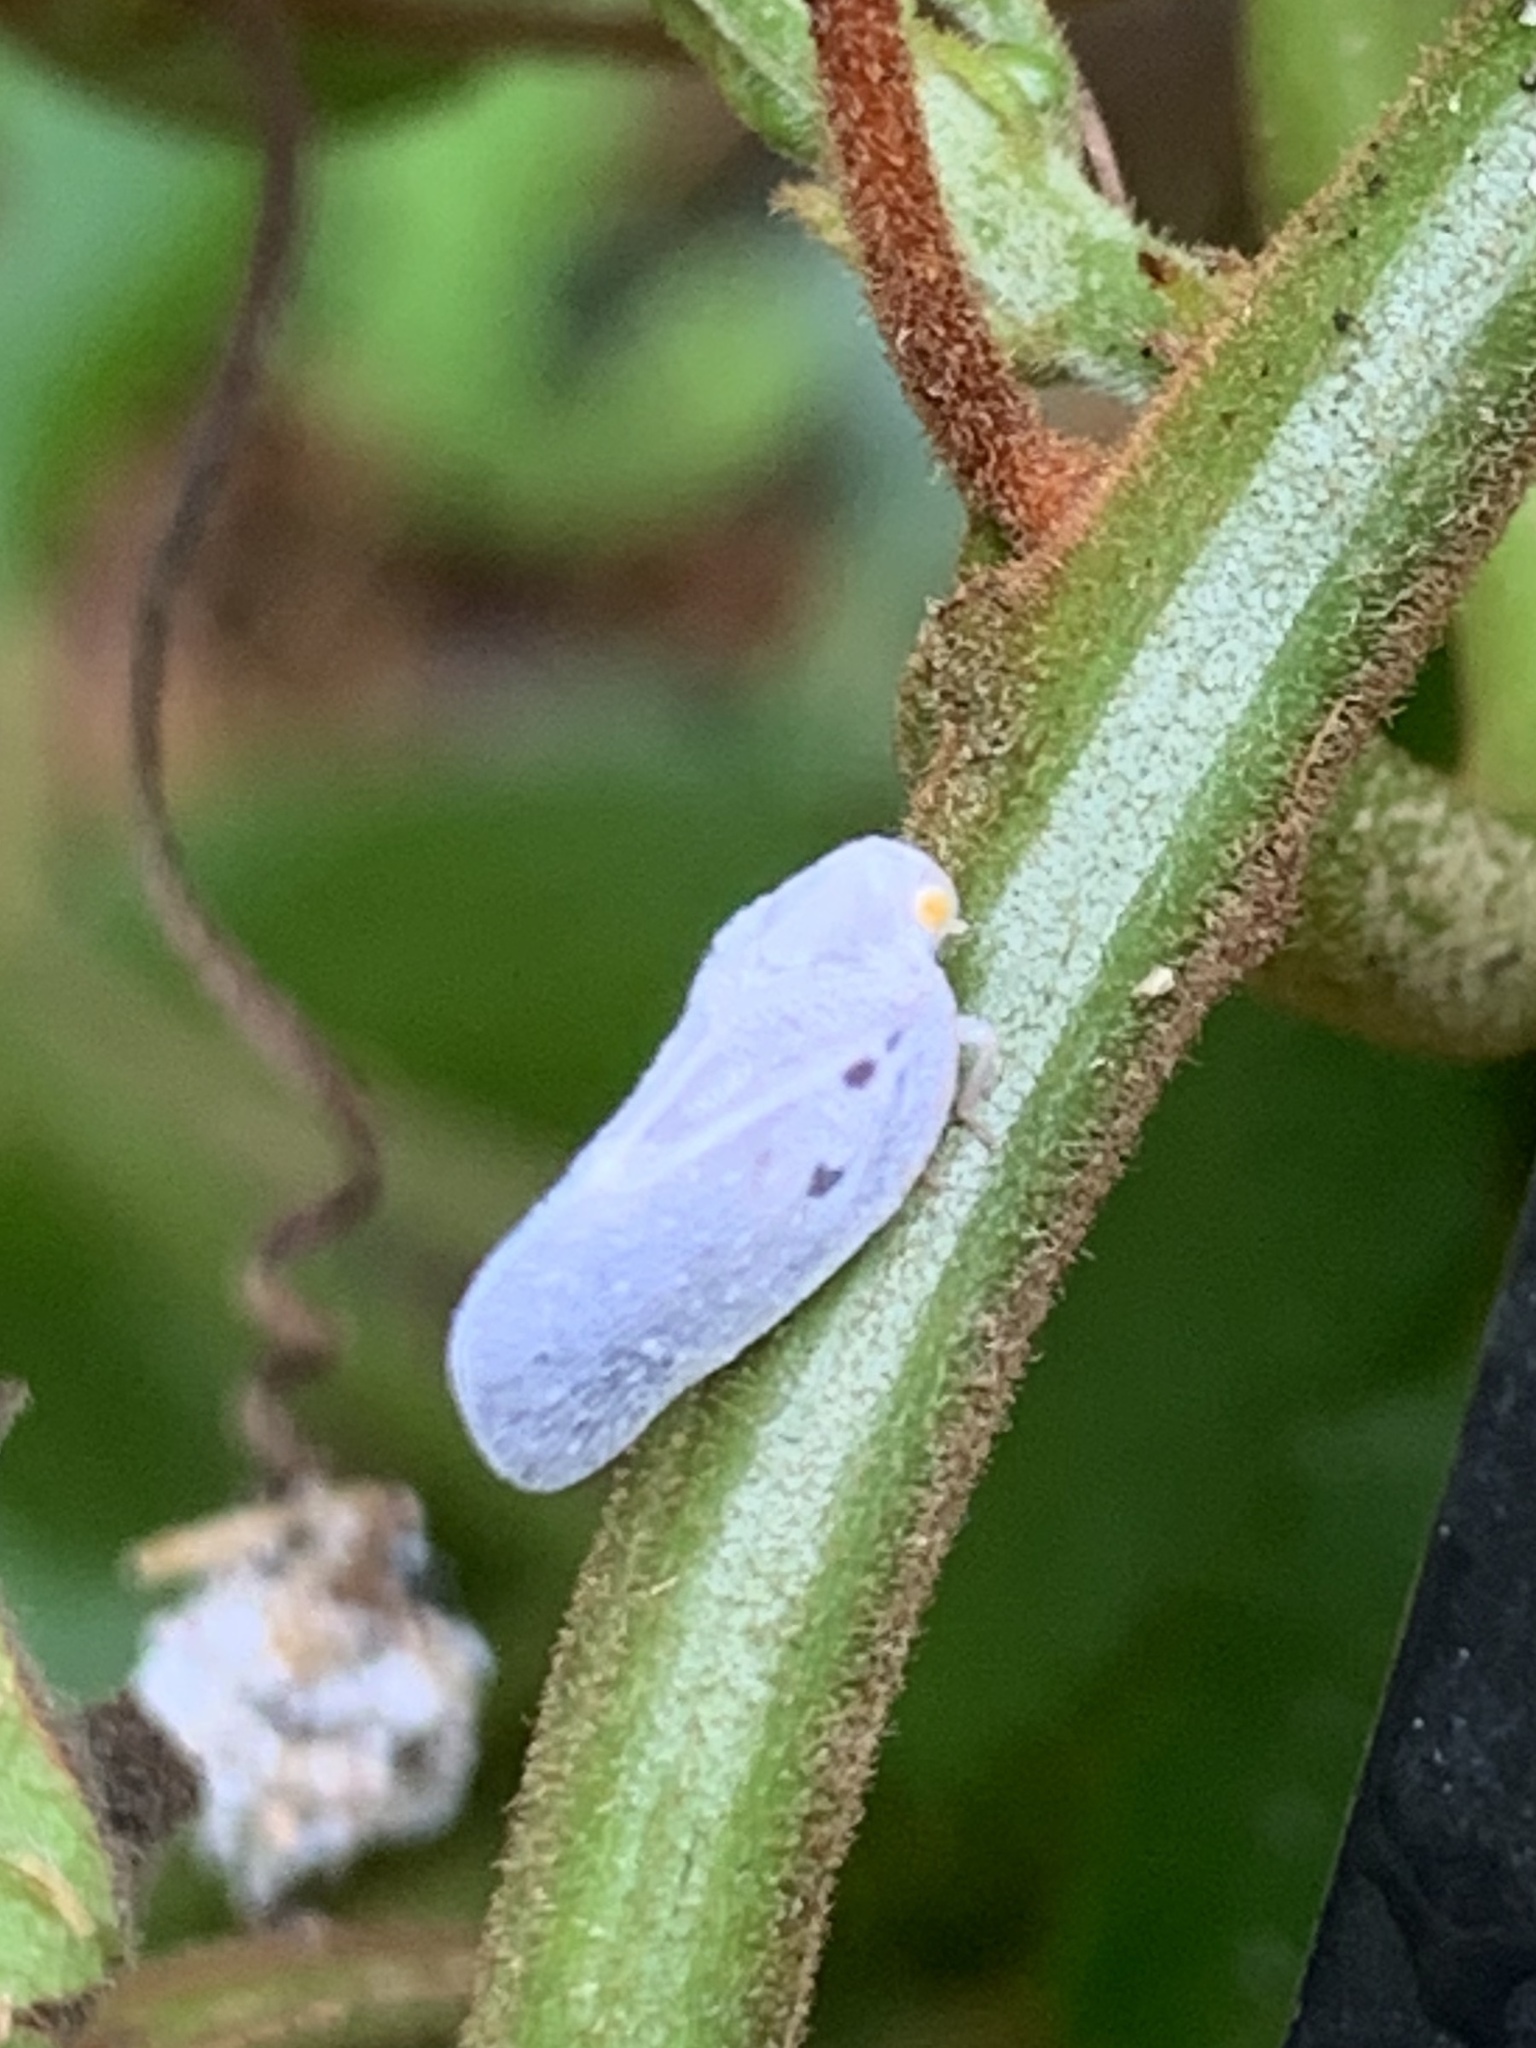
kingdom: Animalia
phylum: Arthropoda
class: Insecta
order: Hemiptera
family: Flatidae
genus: Metcalfa
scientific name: Metcalfa pruinosa
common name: Citrus flatid planthopper
